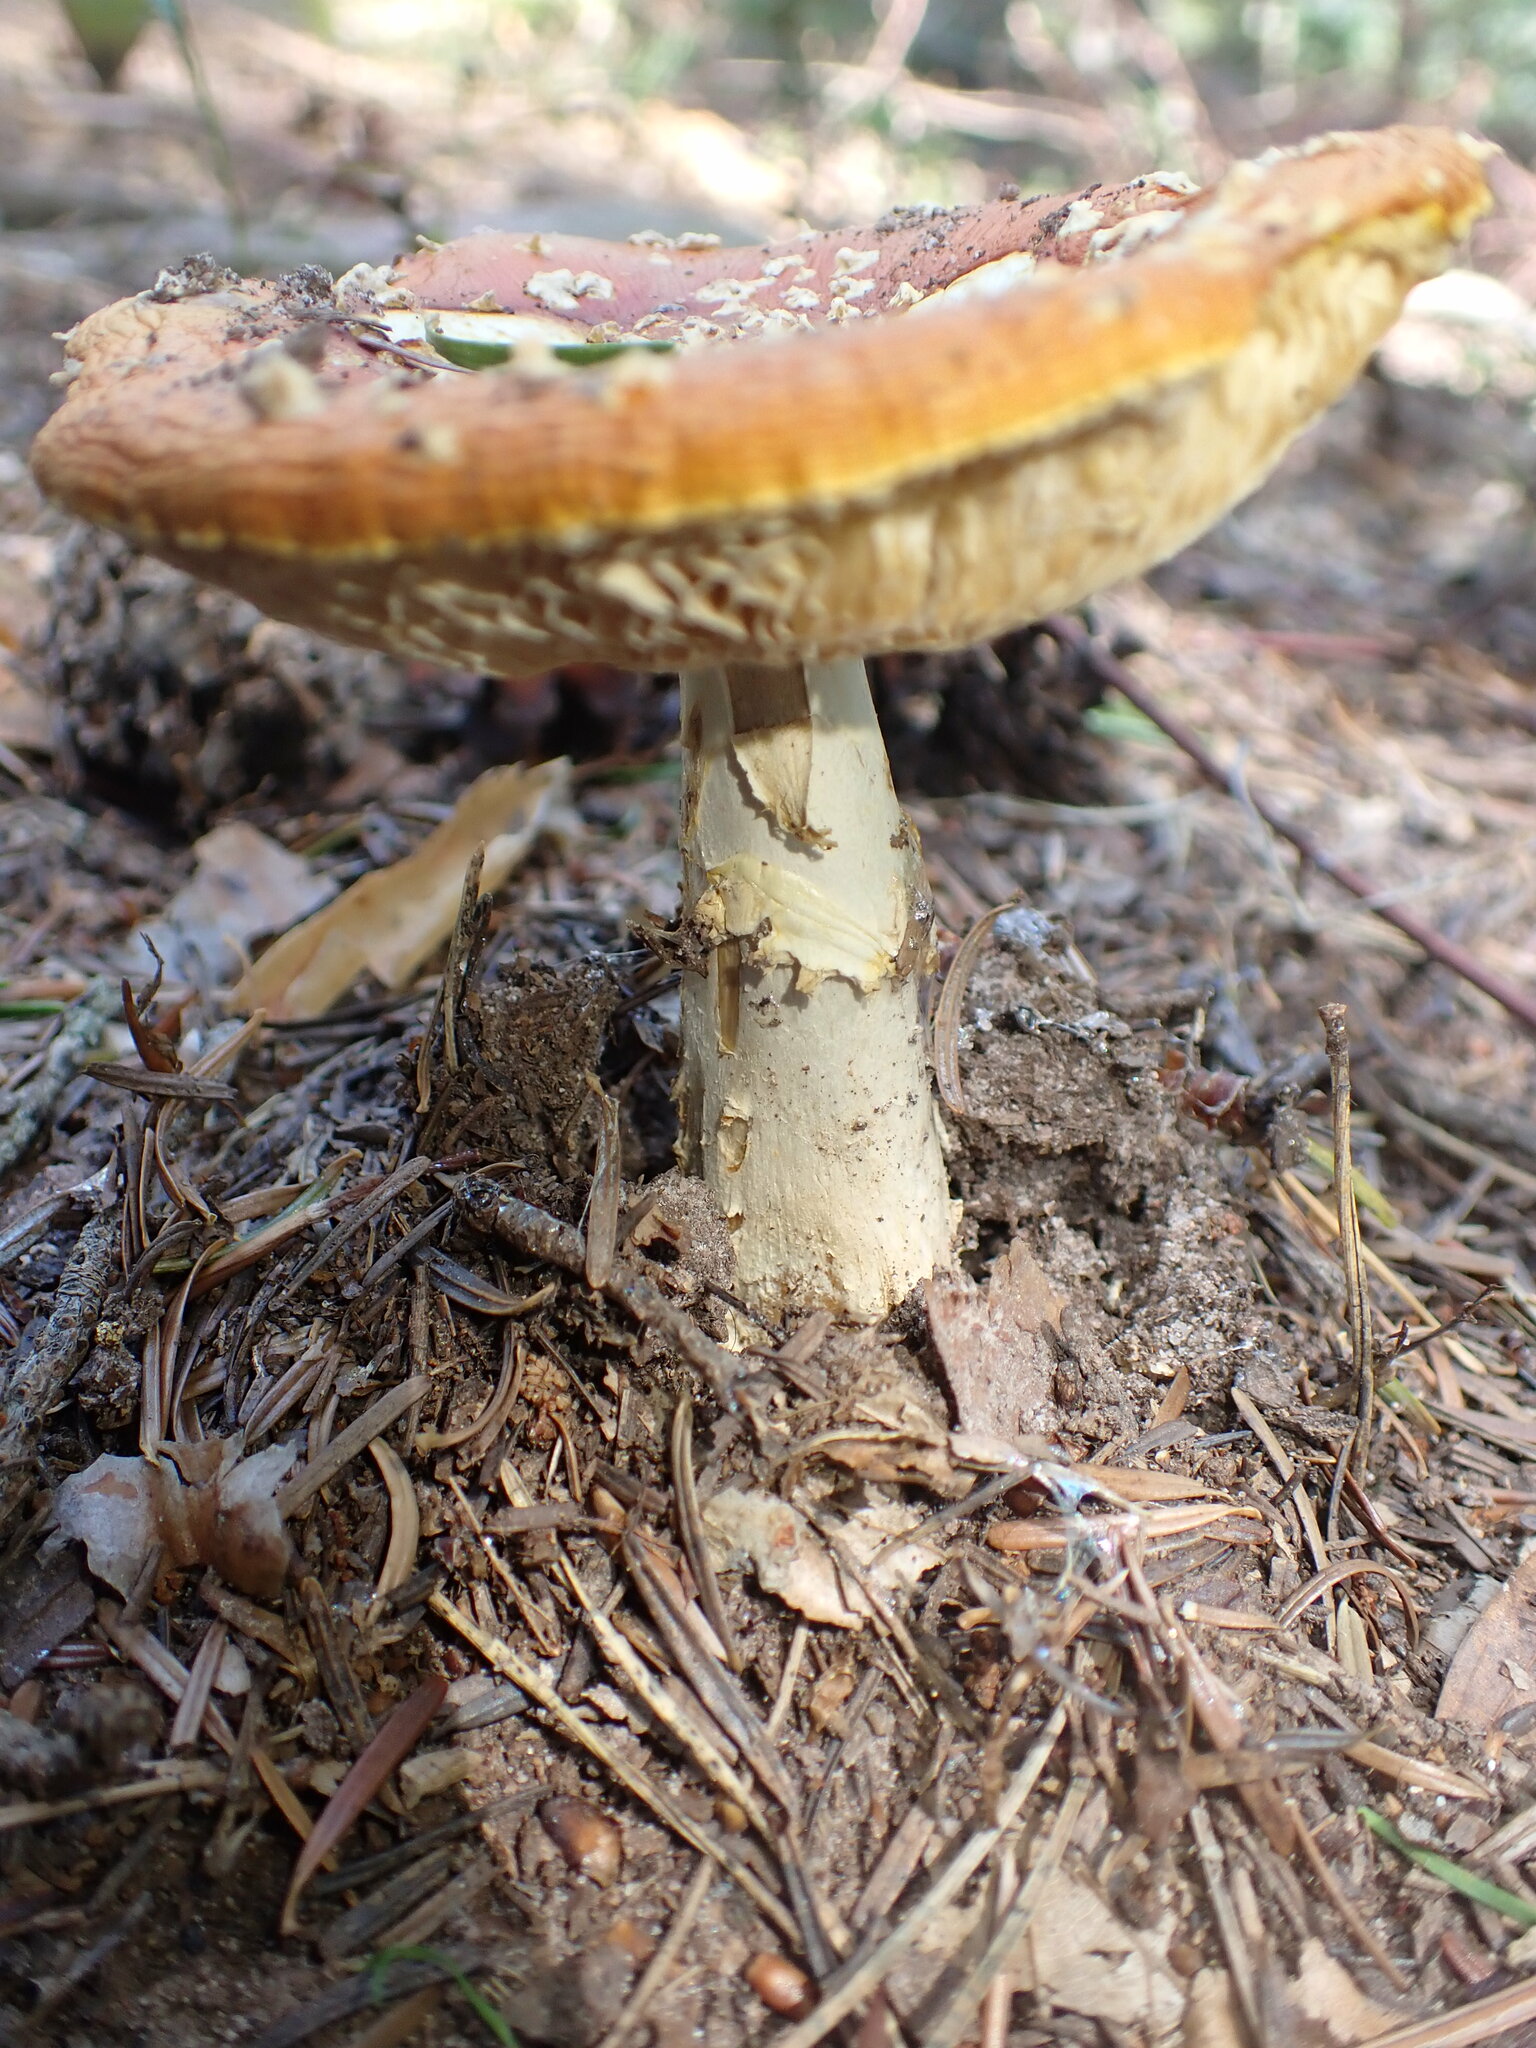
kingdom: Fungi
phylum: Basidiomycota
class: Agaricomycetes
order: Agaricales
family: Amanitaceae
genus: Amanita
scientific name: Amanita muscaria
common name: Fly agaric
